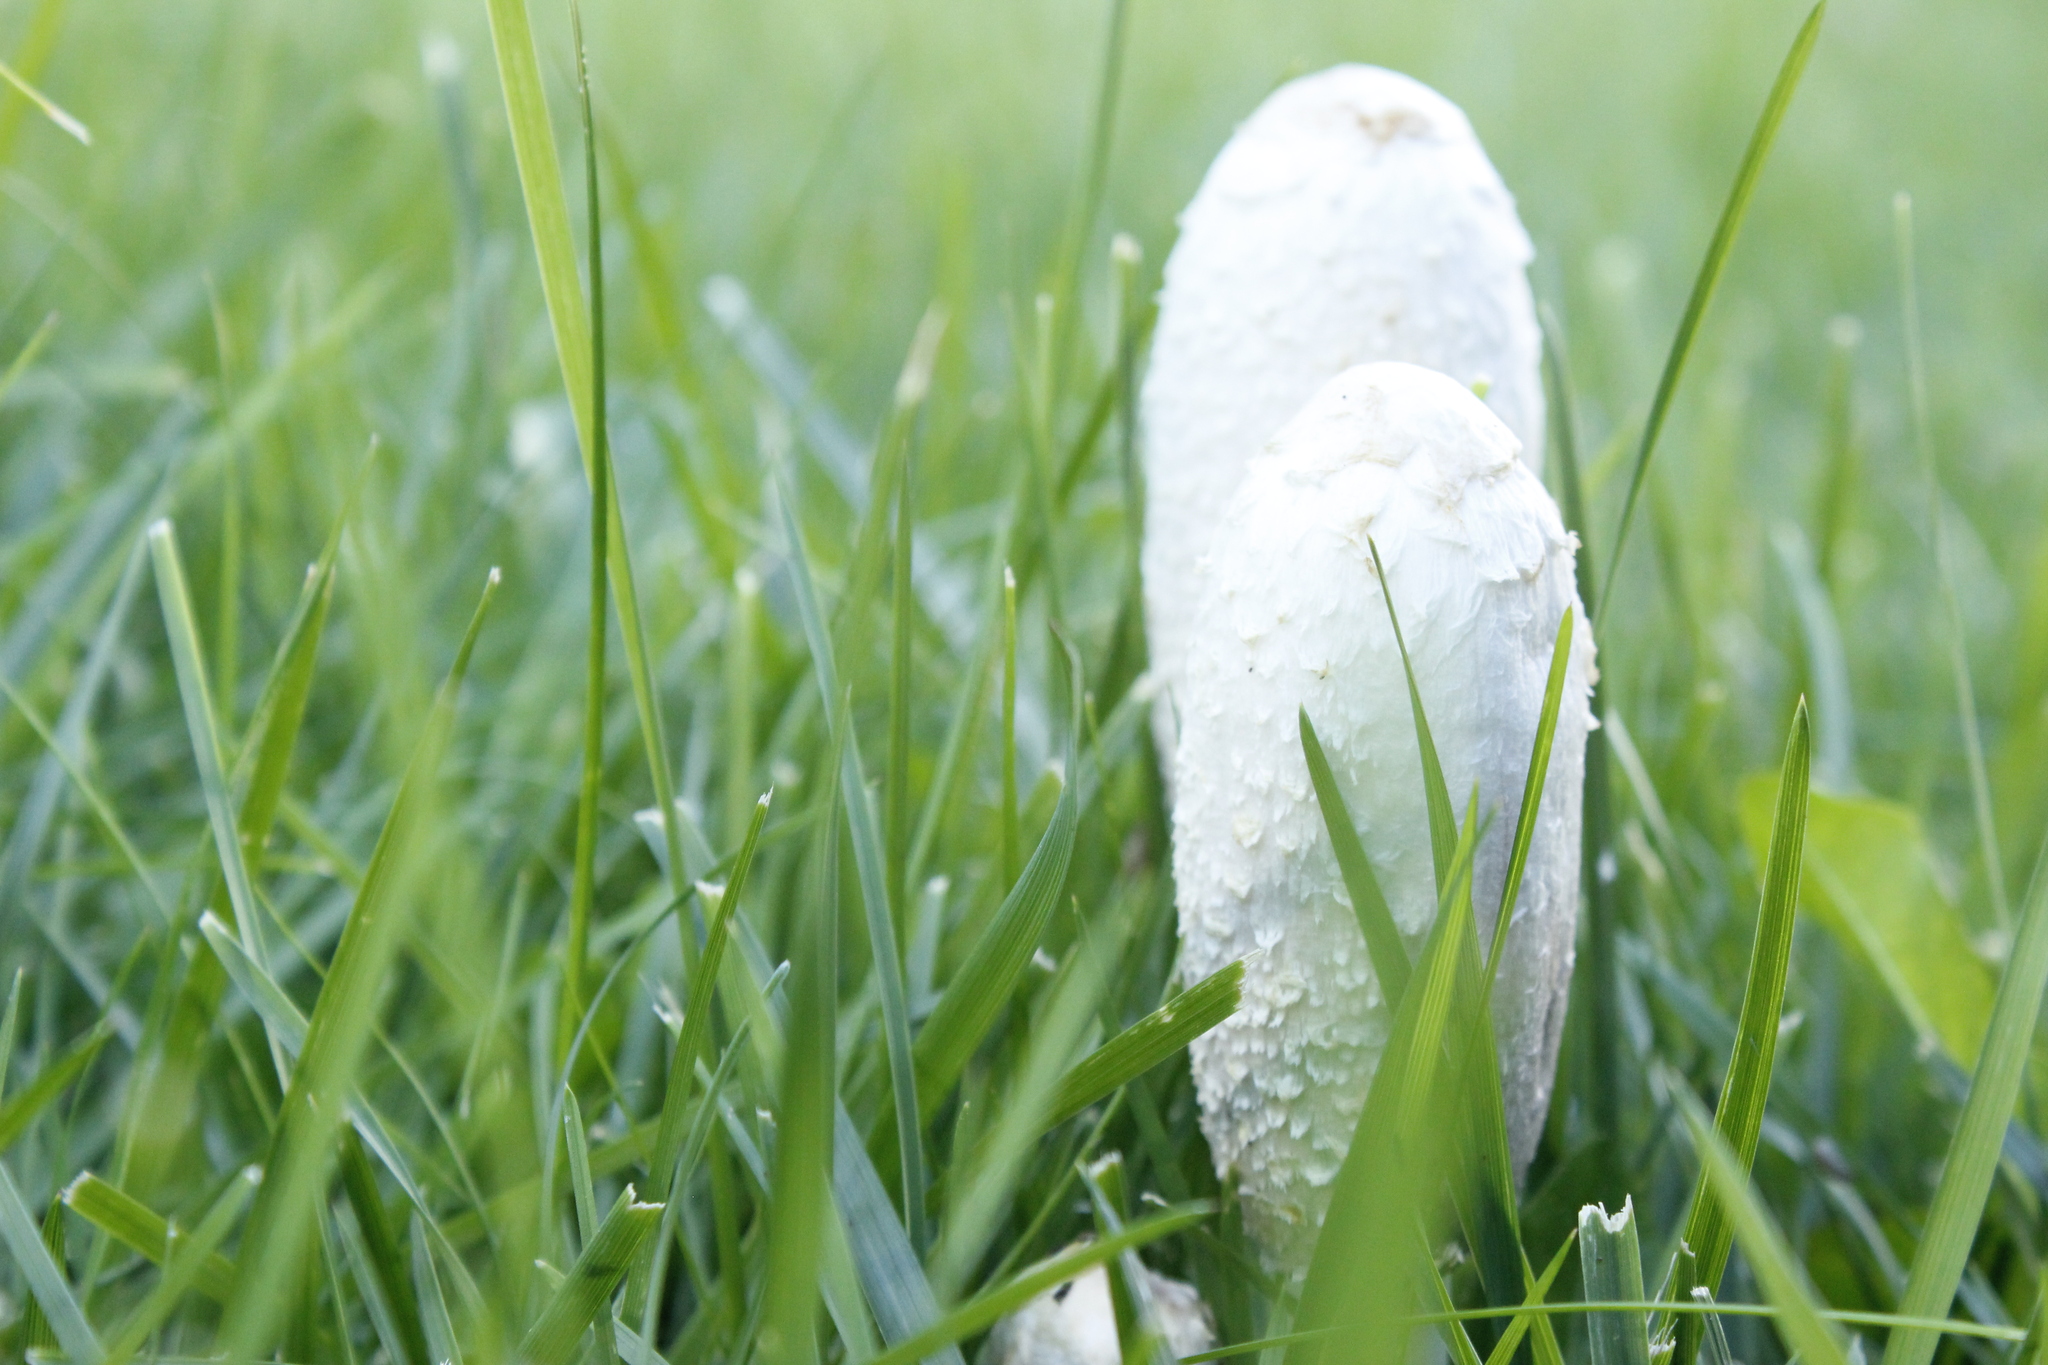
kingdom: Fungi
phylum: Basidiomycota
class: Agaricomycetes
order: Agaricales
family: Agaricaceae
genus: Coprinus
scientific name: Coprinus comatus
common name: Lawyer's wig
